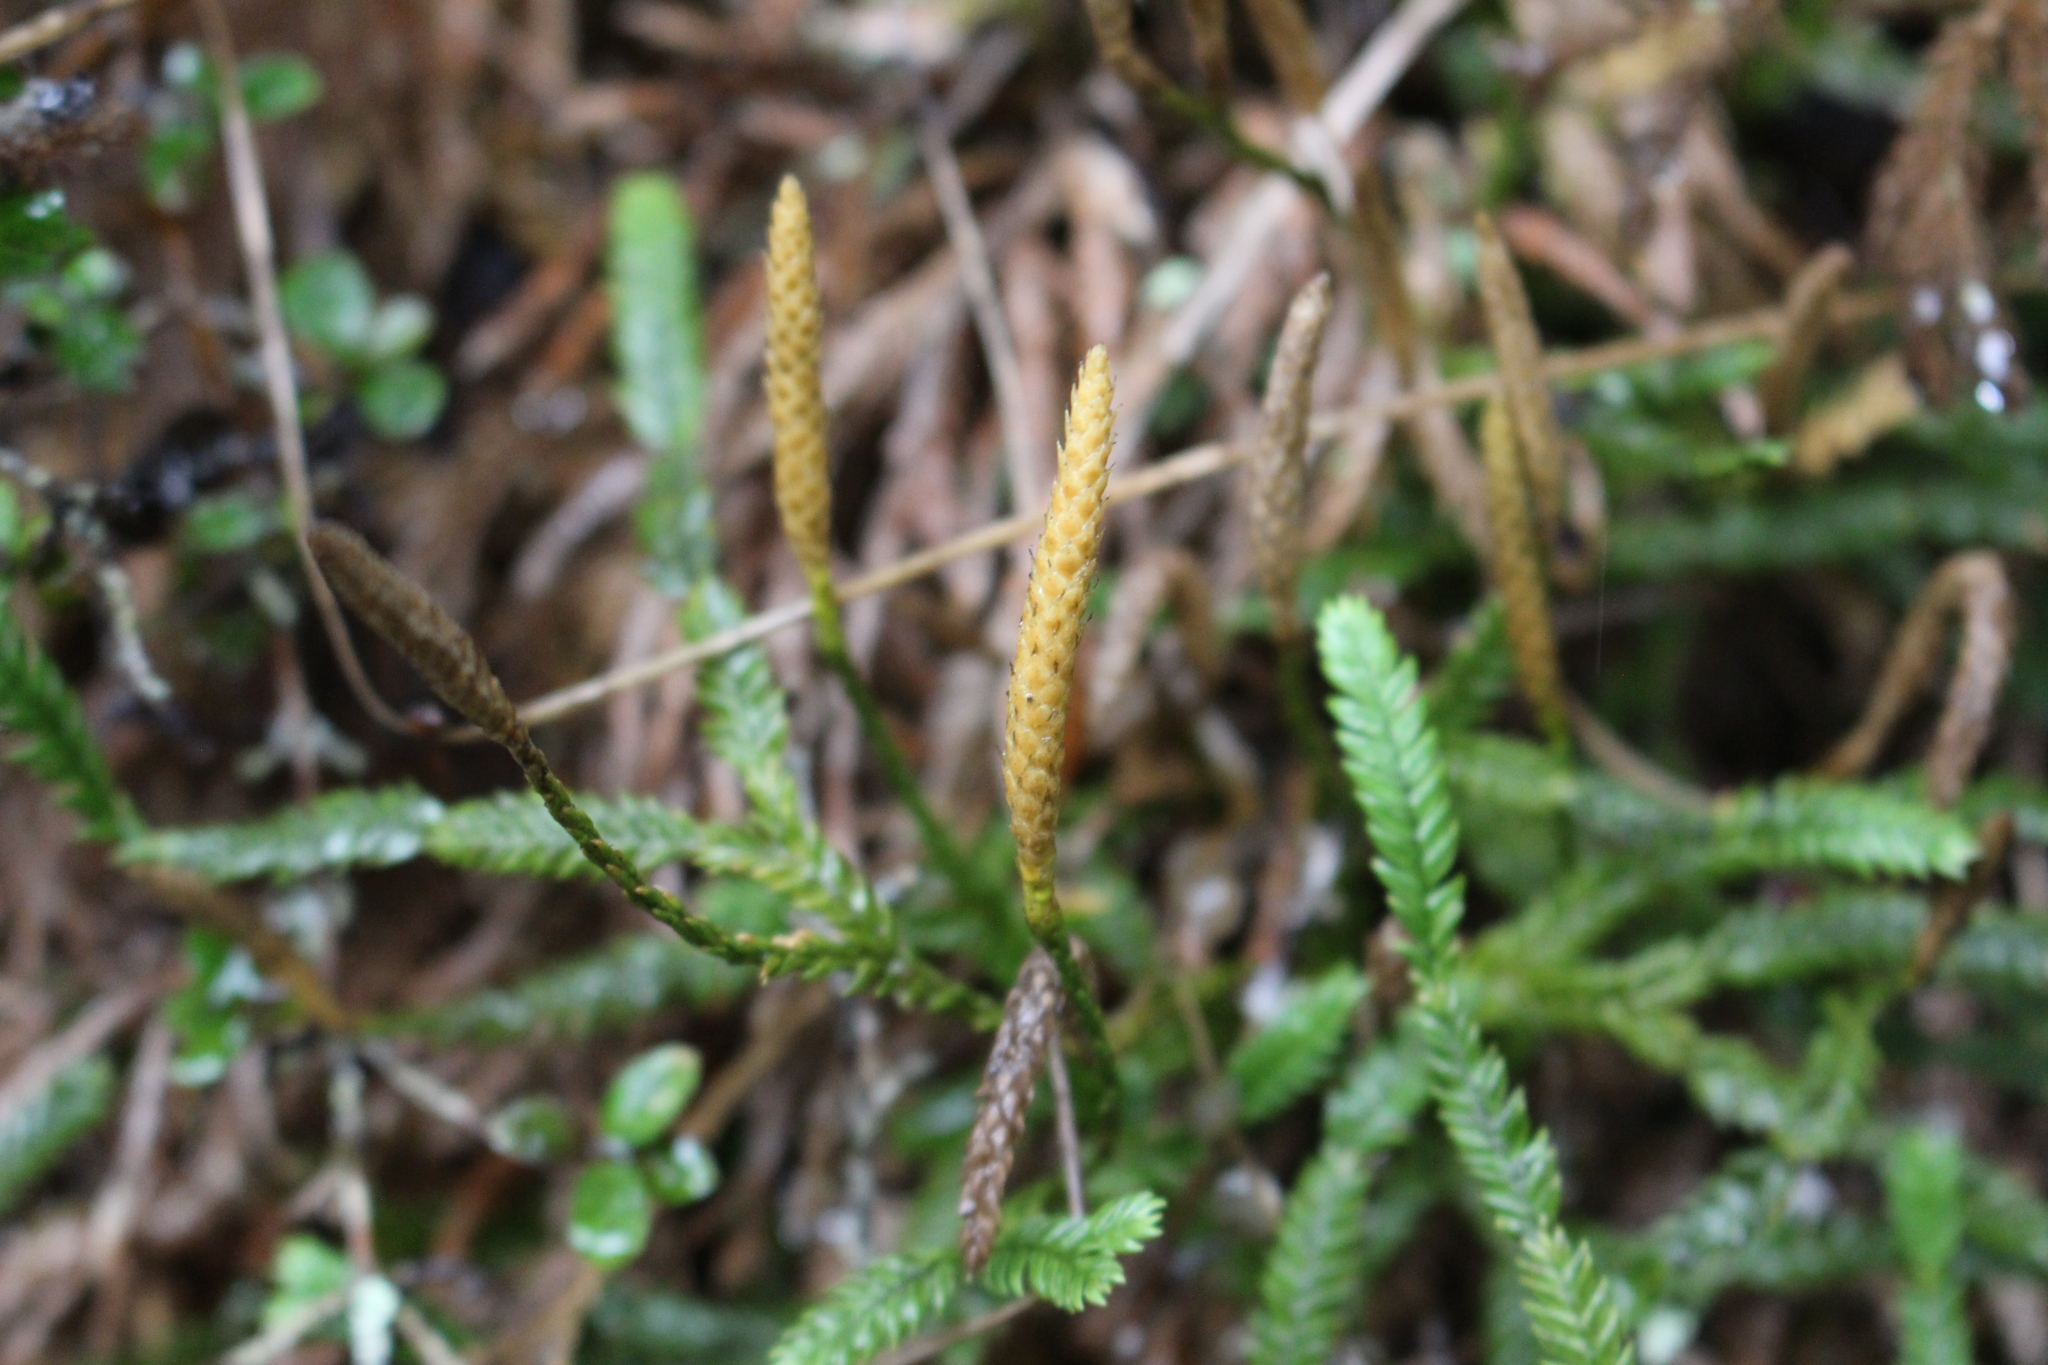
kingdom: Plantae
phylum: Tracheophyta
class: Lycopodiopsida
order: Lycopodiales
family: Lycopodiaceae
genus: Diphasium
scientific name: Diphasium scariosum
